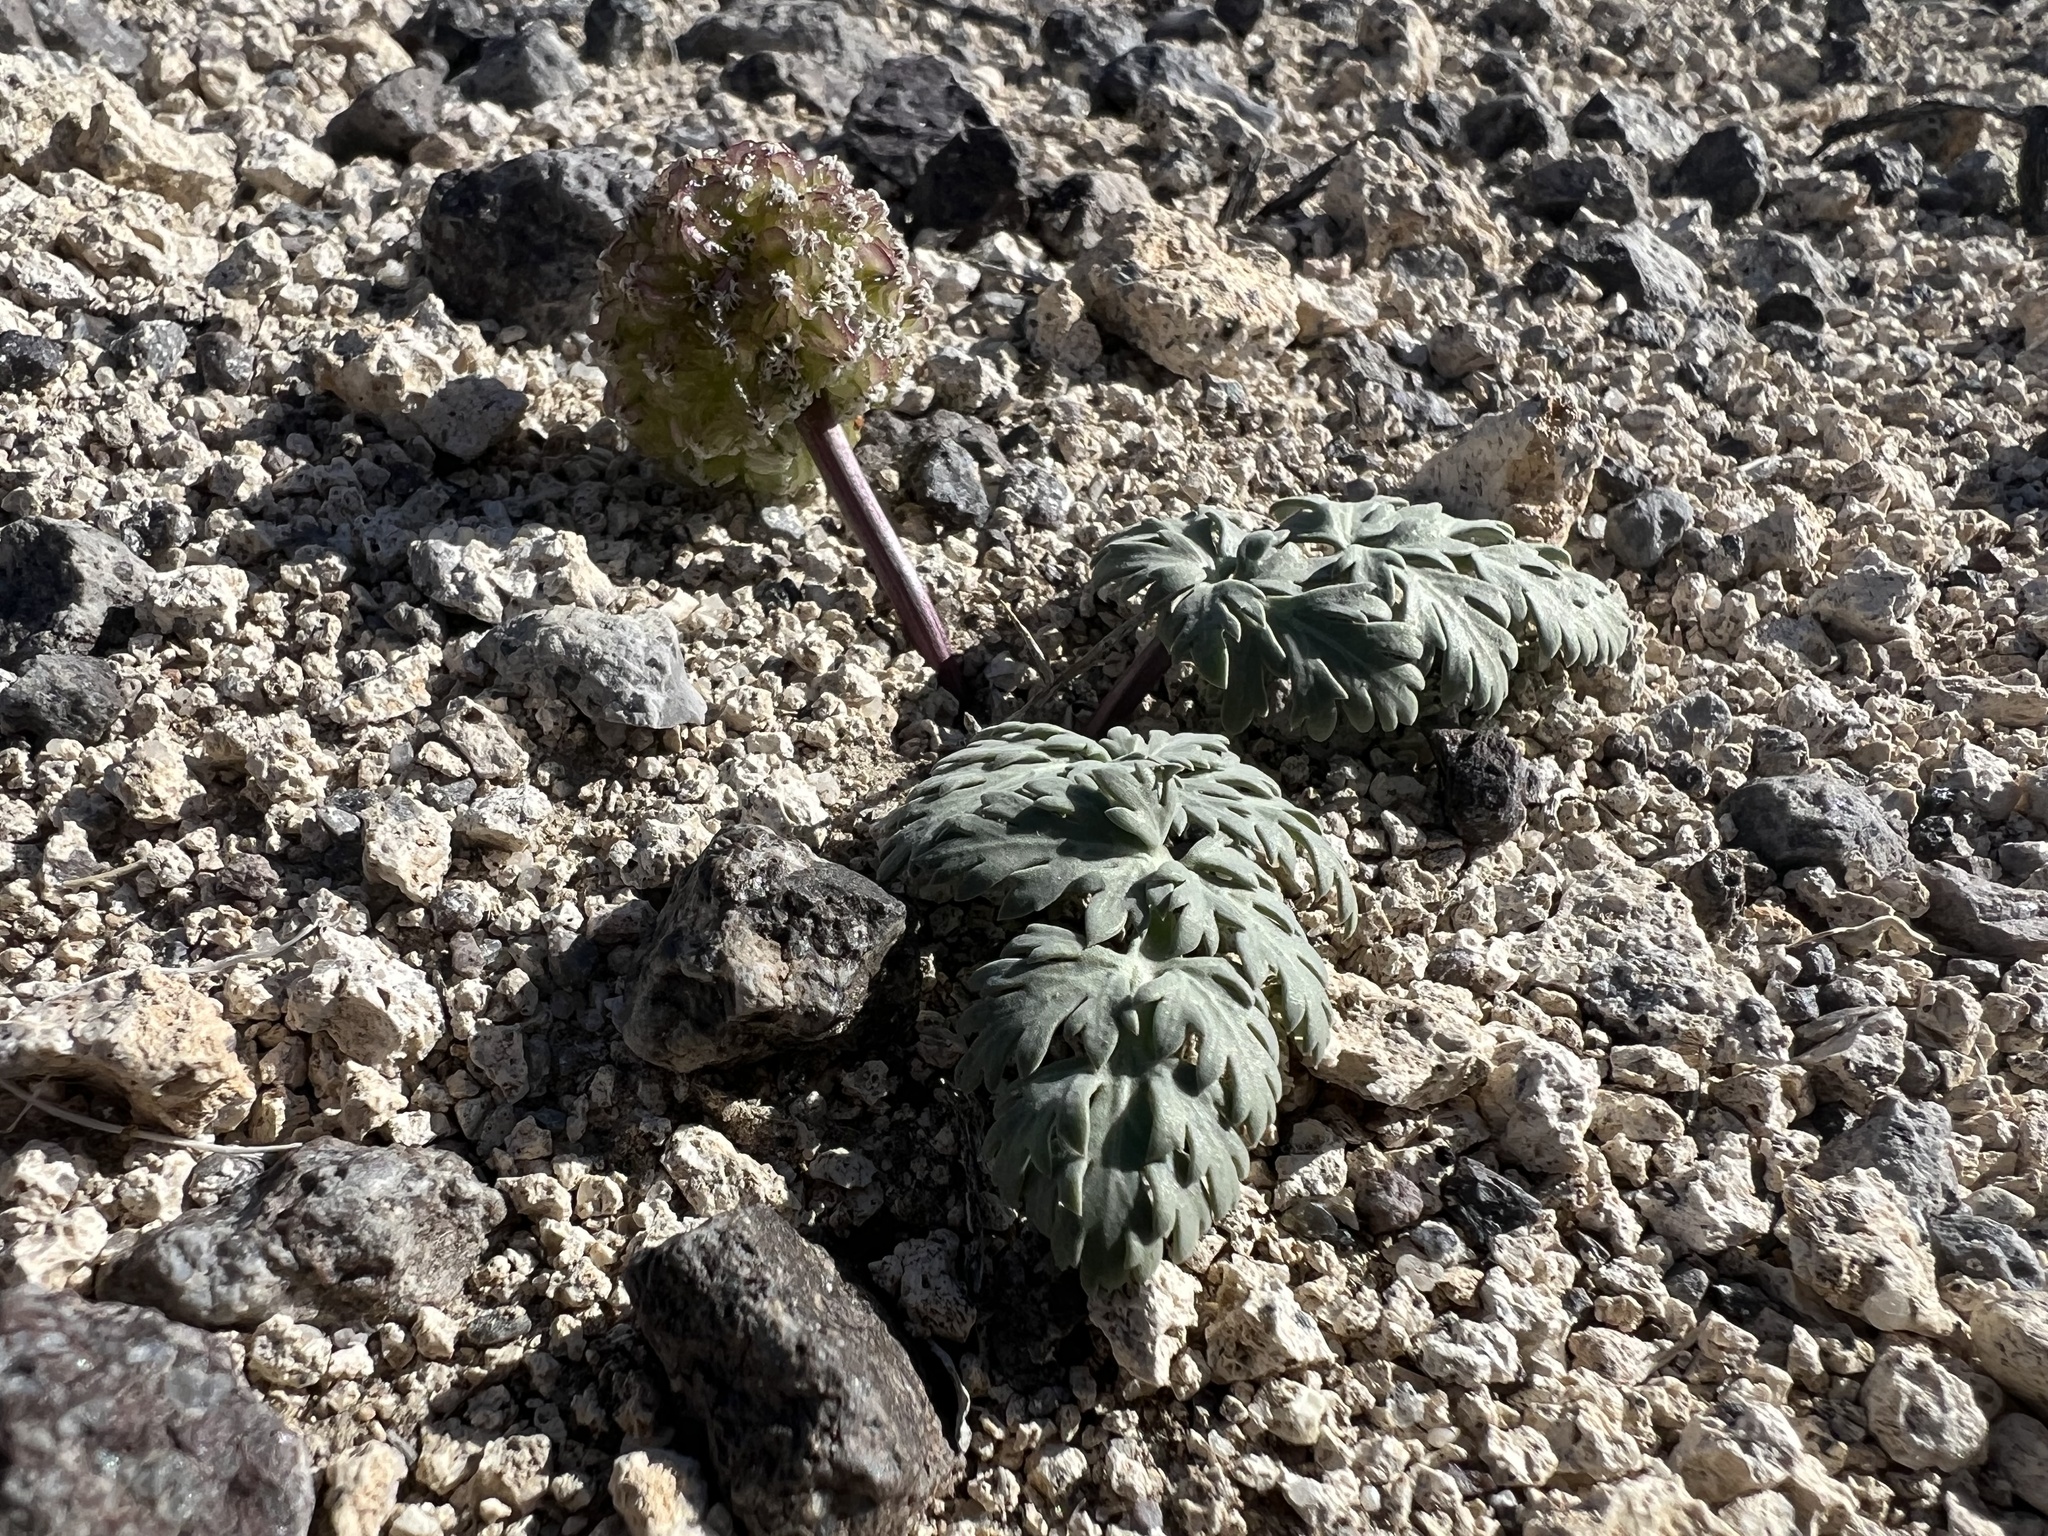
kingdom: Plantae
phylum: Tracheophyta
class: Magnoliopsida
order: Apiales
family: Apiaceae
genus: Cymopterus
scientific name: Cymopterus globosus
